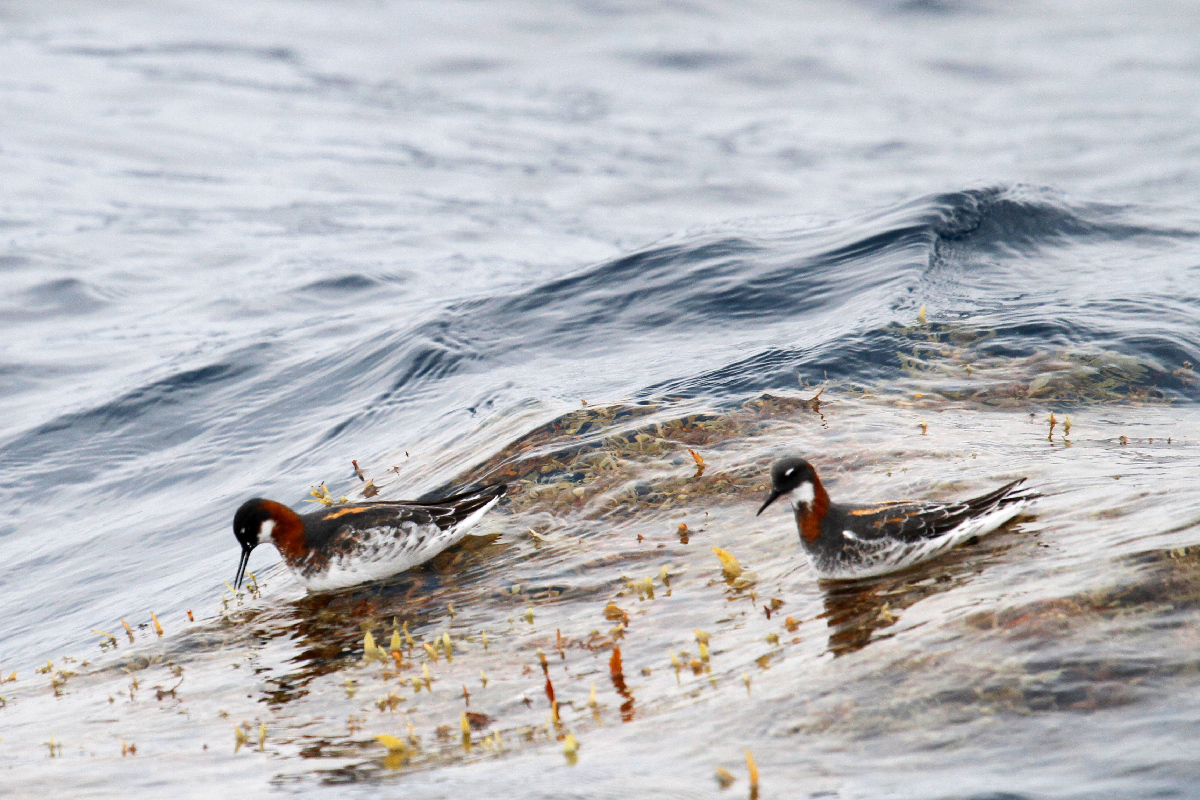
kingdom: Animalia
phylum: Chordata
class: Aves
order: Charadriiformes
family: Scolopacidae
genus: Phalaropus
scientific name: Phalaropus lobatus
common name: Red-necked phalarope
